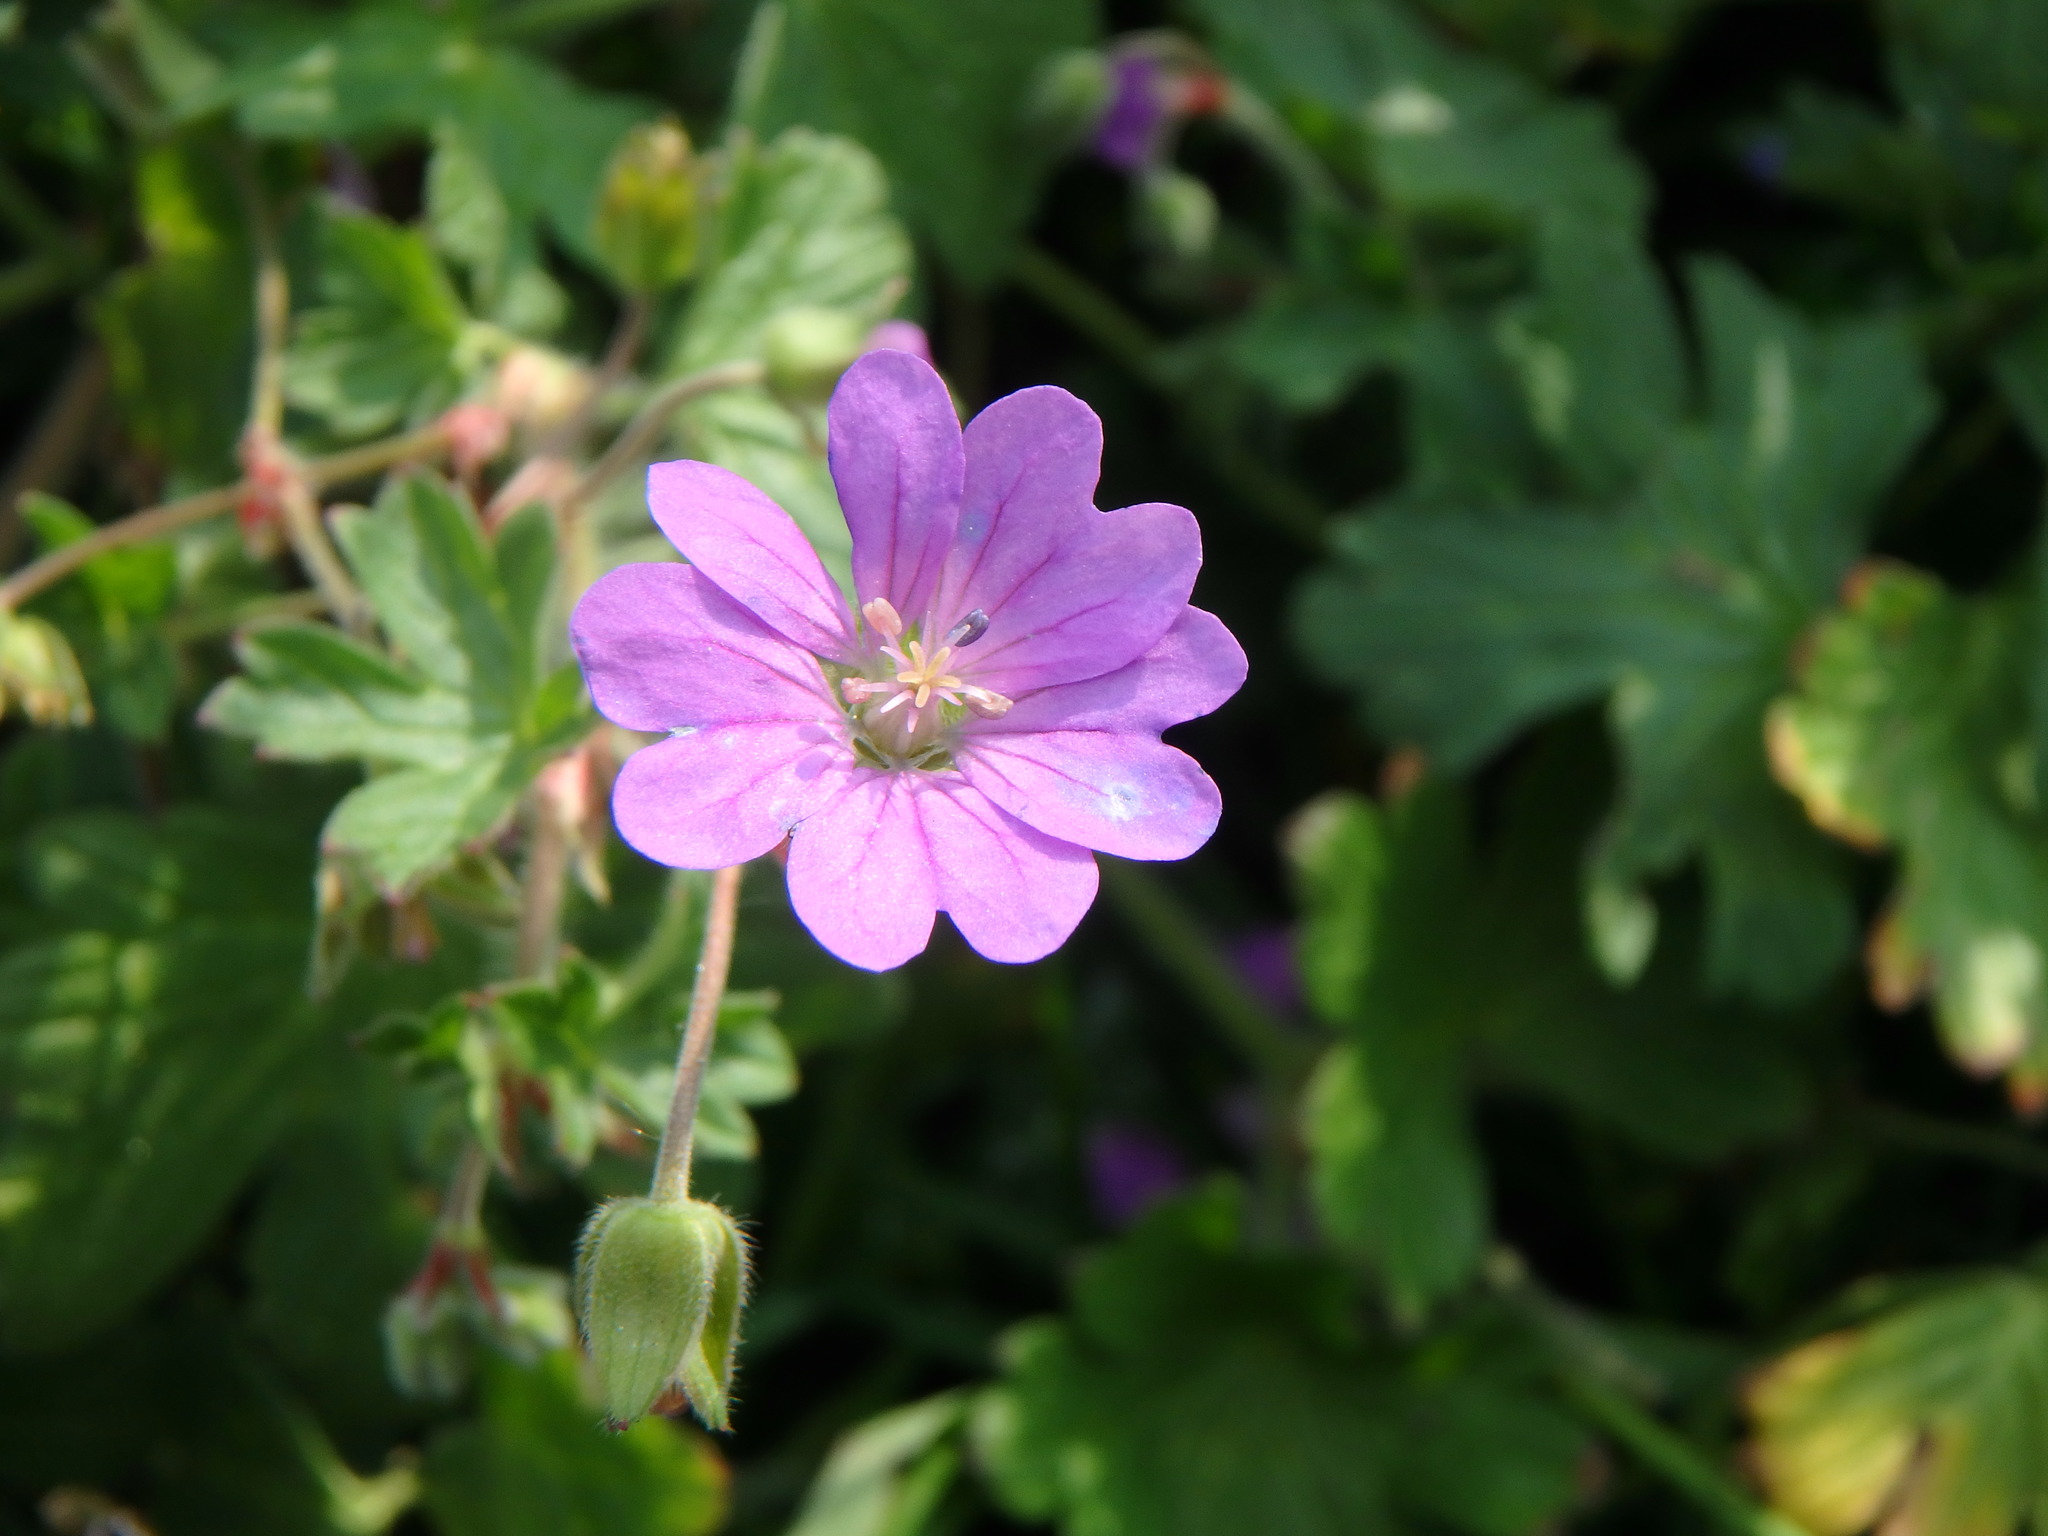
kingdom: Plantae
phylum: Tracheophyta
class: Magnoliopsida
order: Geraniales
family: Geraniaceae
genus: Geranium
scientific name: Geranium pyrenaicum
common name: Hedgerow crane's-bill
